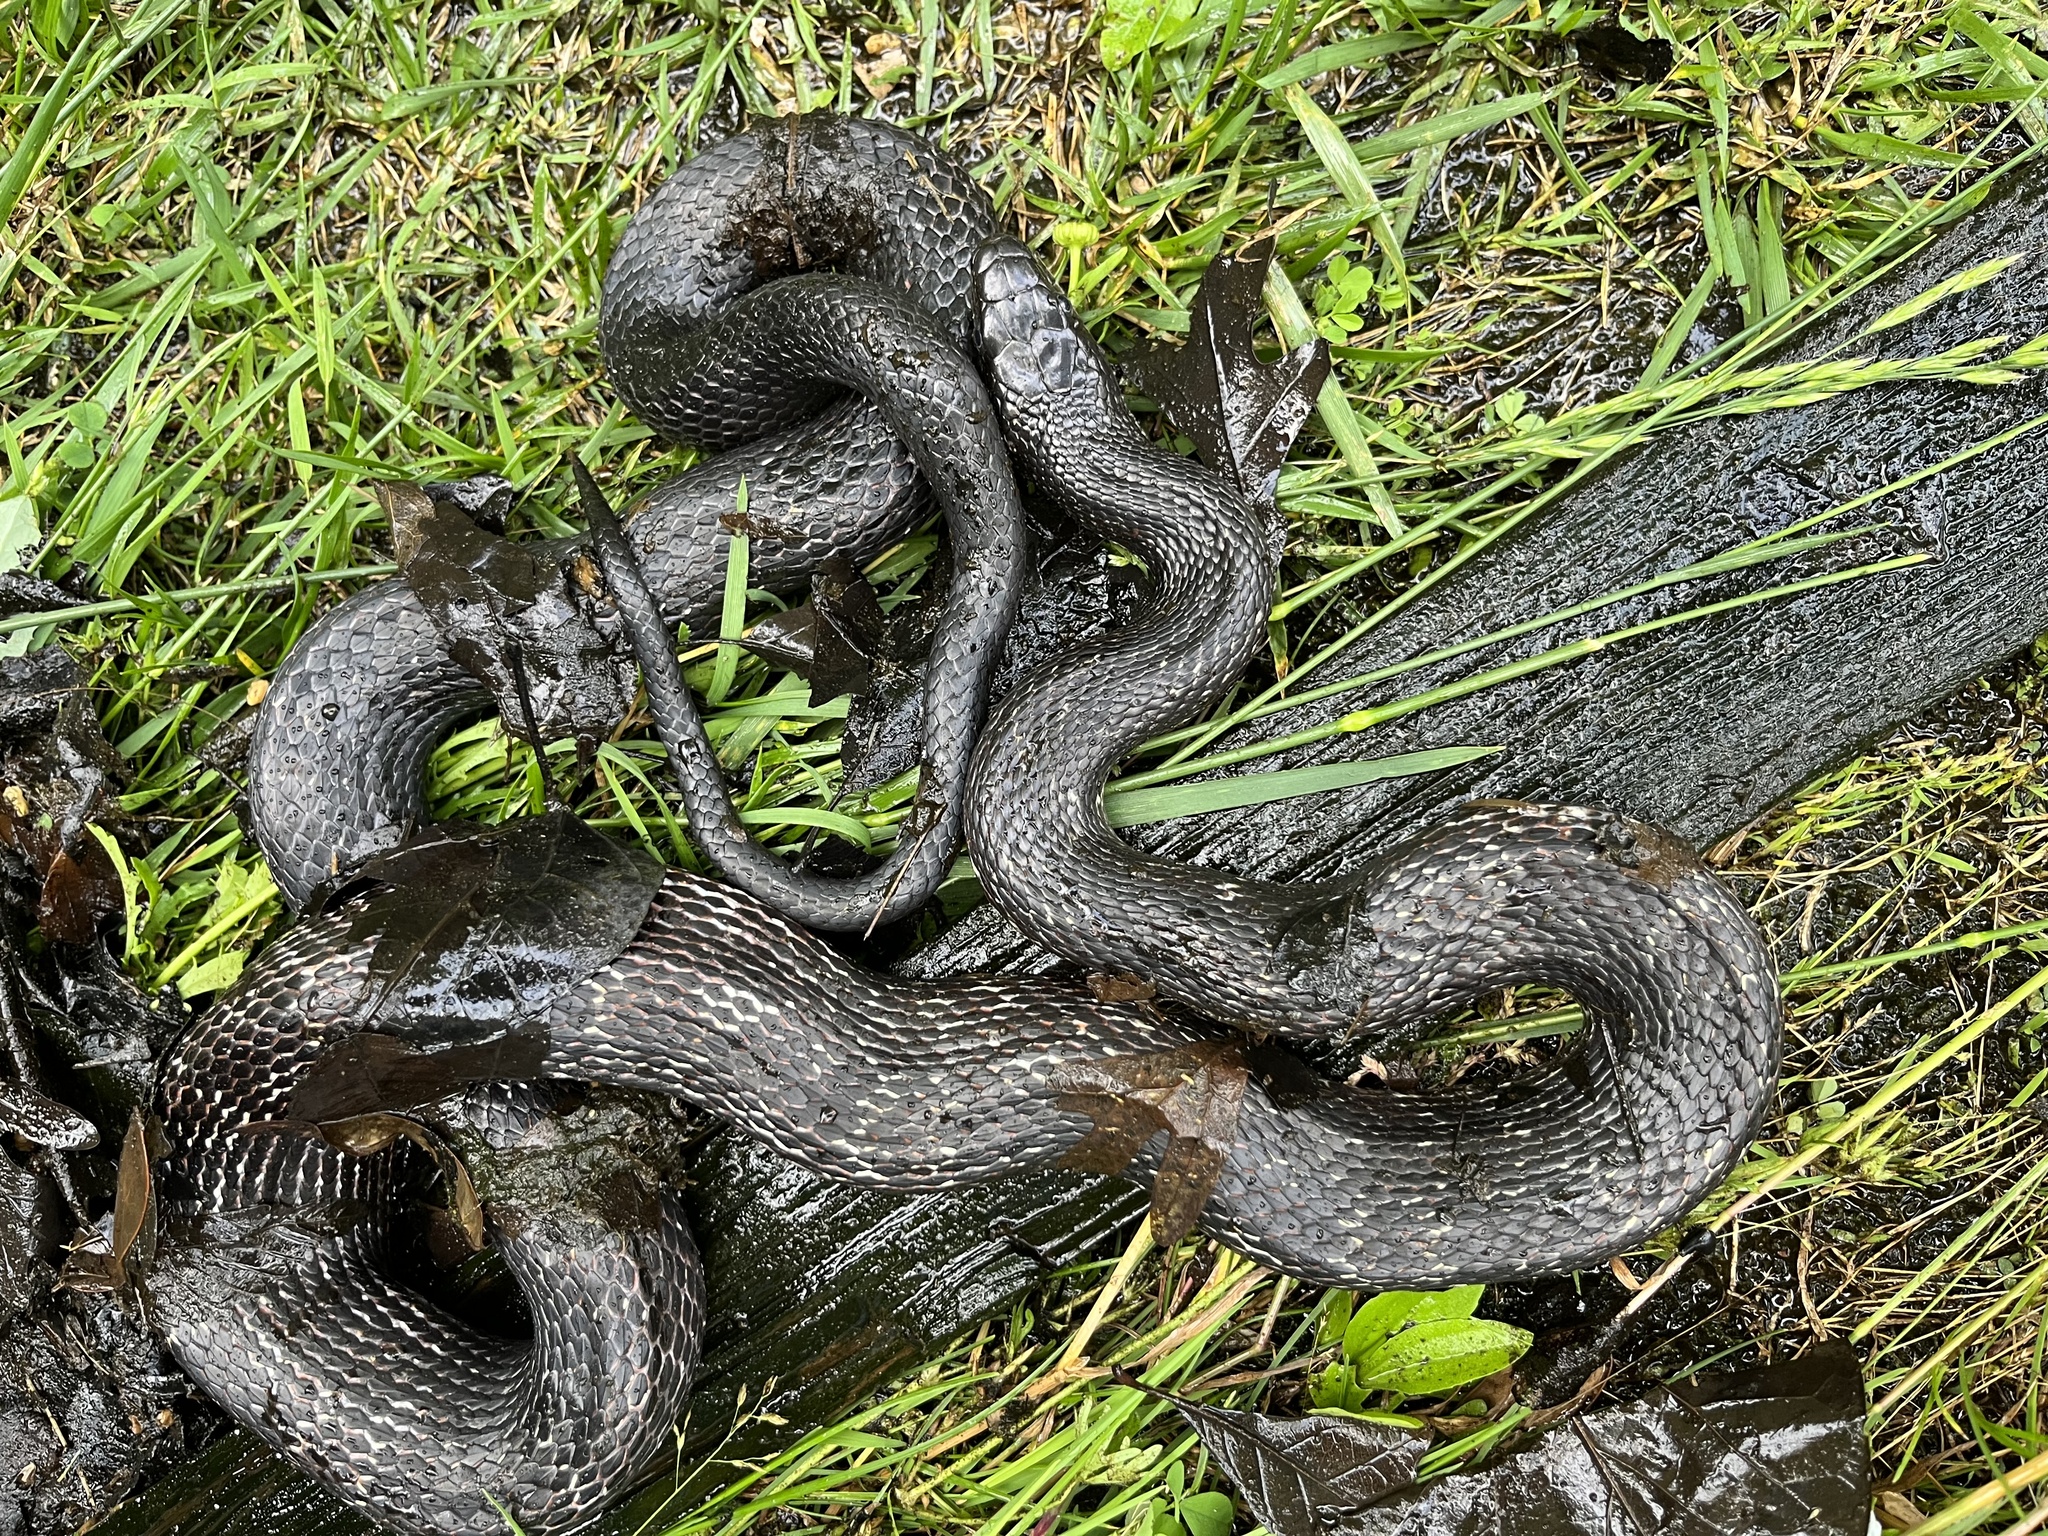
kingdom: Animalia
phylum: Chordata
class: Squamata
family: Colubridae
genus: Pantherophis
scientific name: Pantherophis spiloides
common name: Gray rat snake
